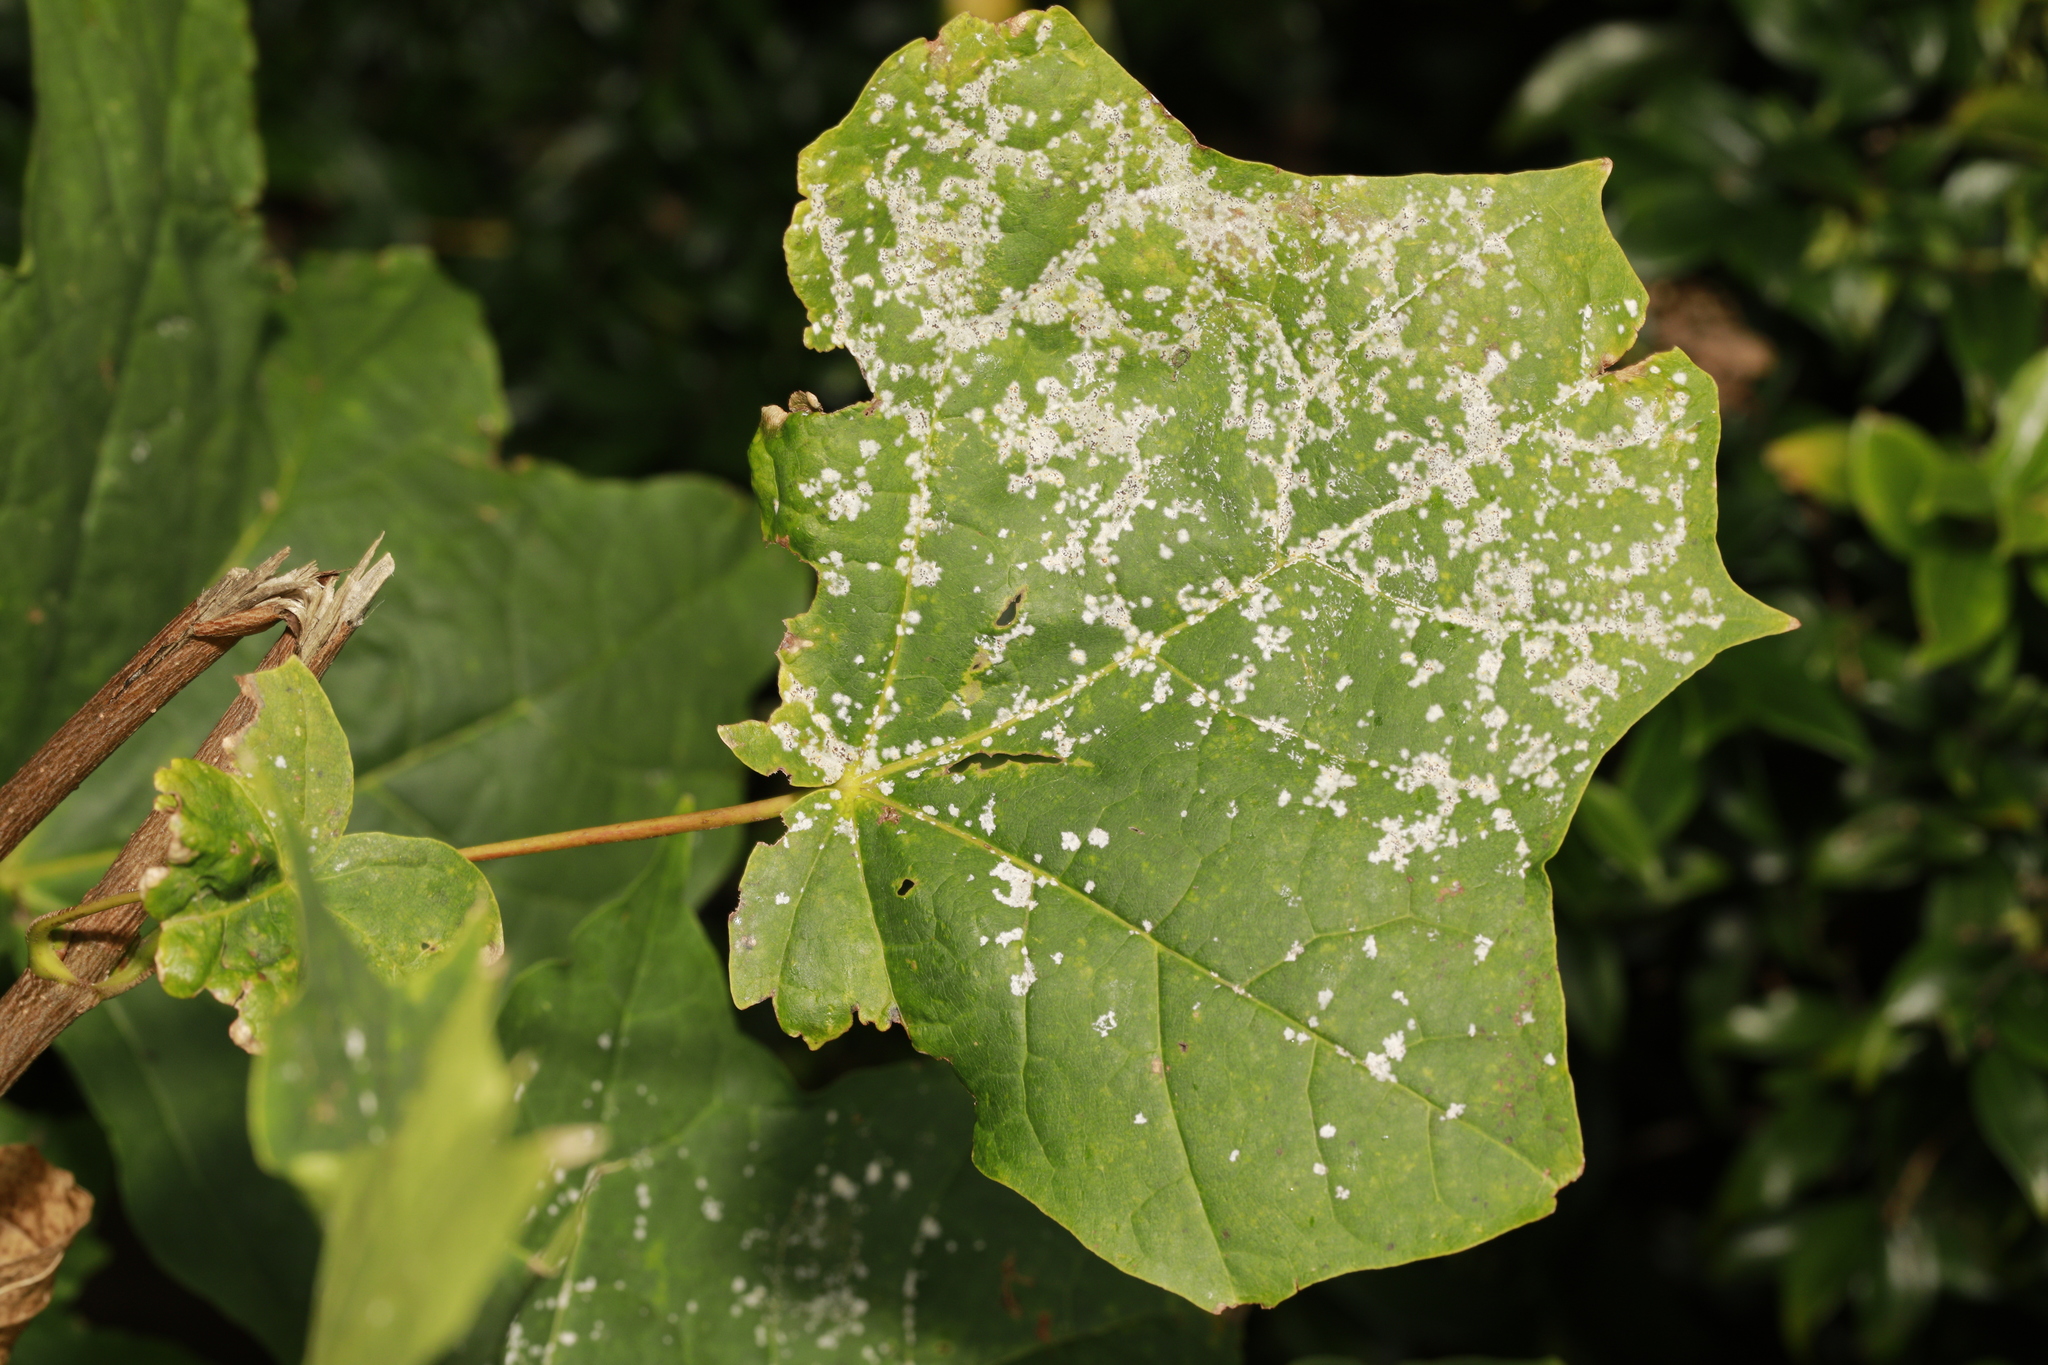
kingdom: Fungi
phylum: Ascomycota
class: Leotiomycetes
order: Helotiales
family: Erysiphaceae
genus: Sawadaea
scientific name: Sawadaea tulasnei
